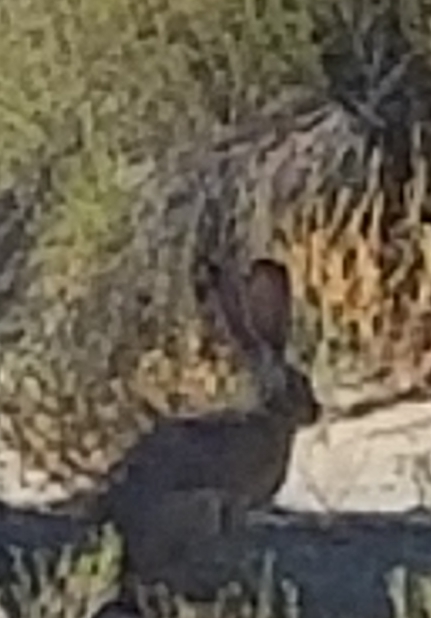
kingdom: Animalia
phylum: Chordata
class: Mammalia
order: Lagomorpha
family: Leporidae
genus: Lepus
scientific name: Lepus californicus
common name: Black-tailed jackrabbit
